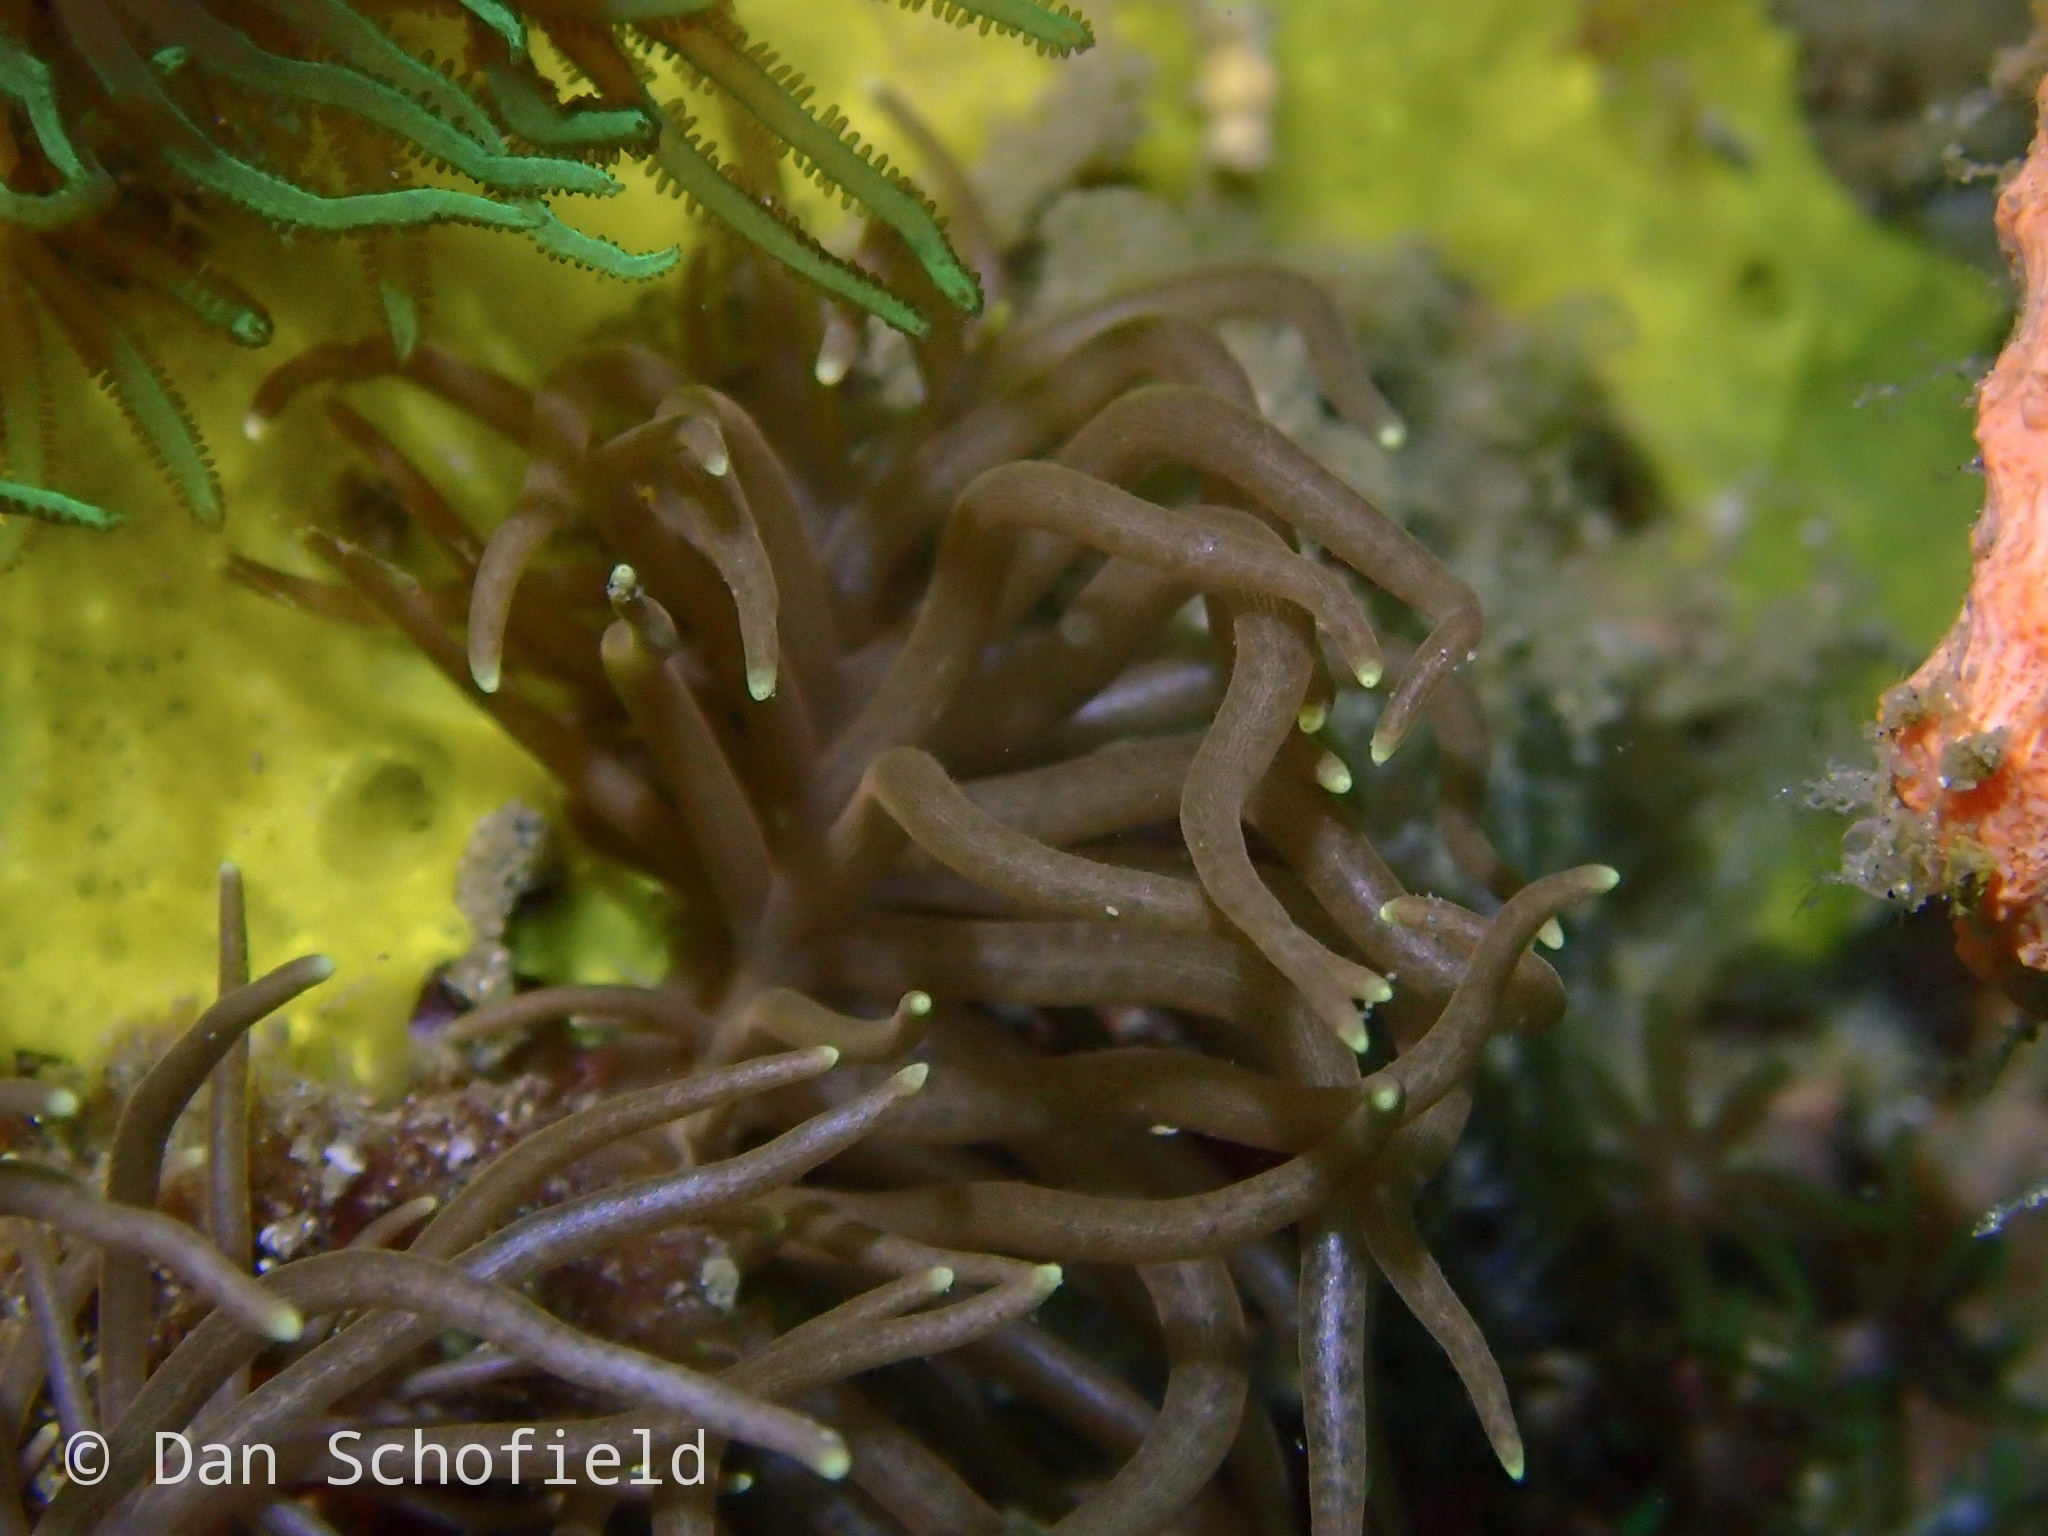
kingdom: Animalia
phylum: Mollusca
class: Gastropoda
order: Nudibranchia
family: Myrrhinidae
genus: Phyllodesmium
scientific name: Phyllodesmium briareum
